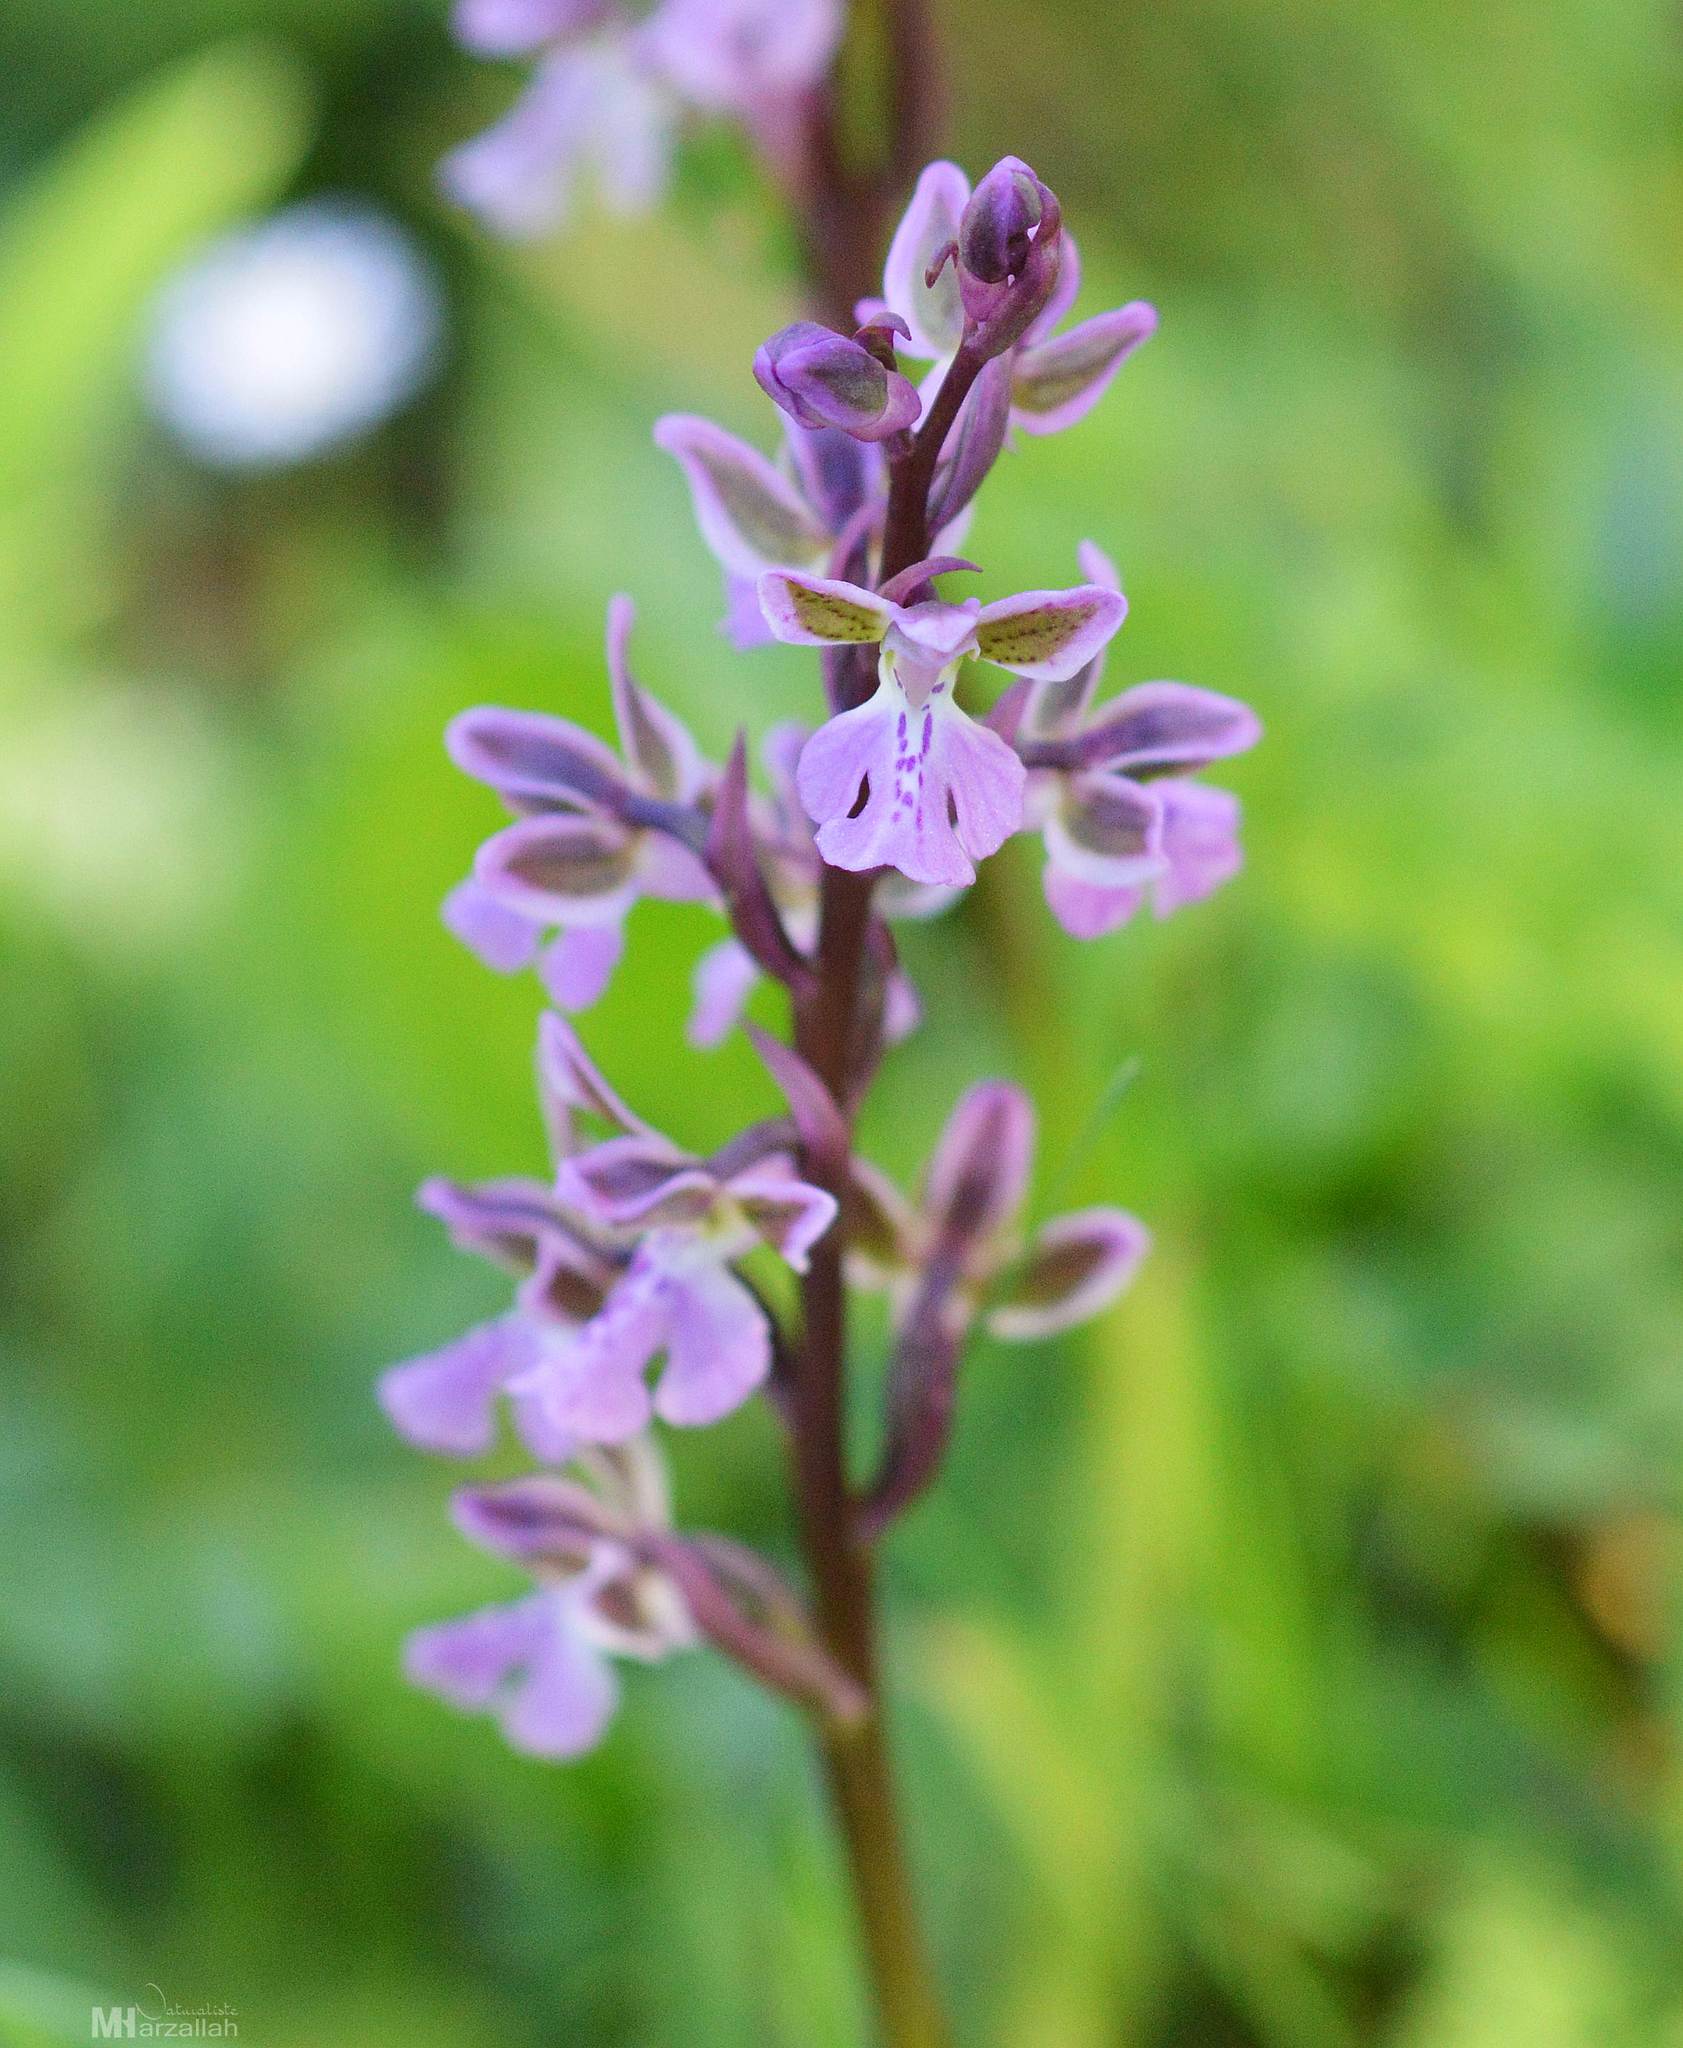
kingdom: Plantae
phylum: Tracheophyta
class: Liliopsida
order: Asparagales
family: Orchidaceae
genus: Orchis
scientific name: Orchis patens
